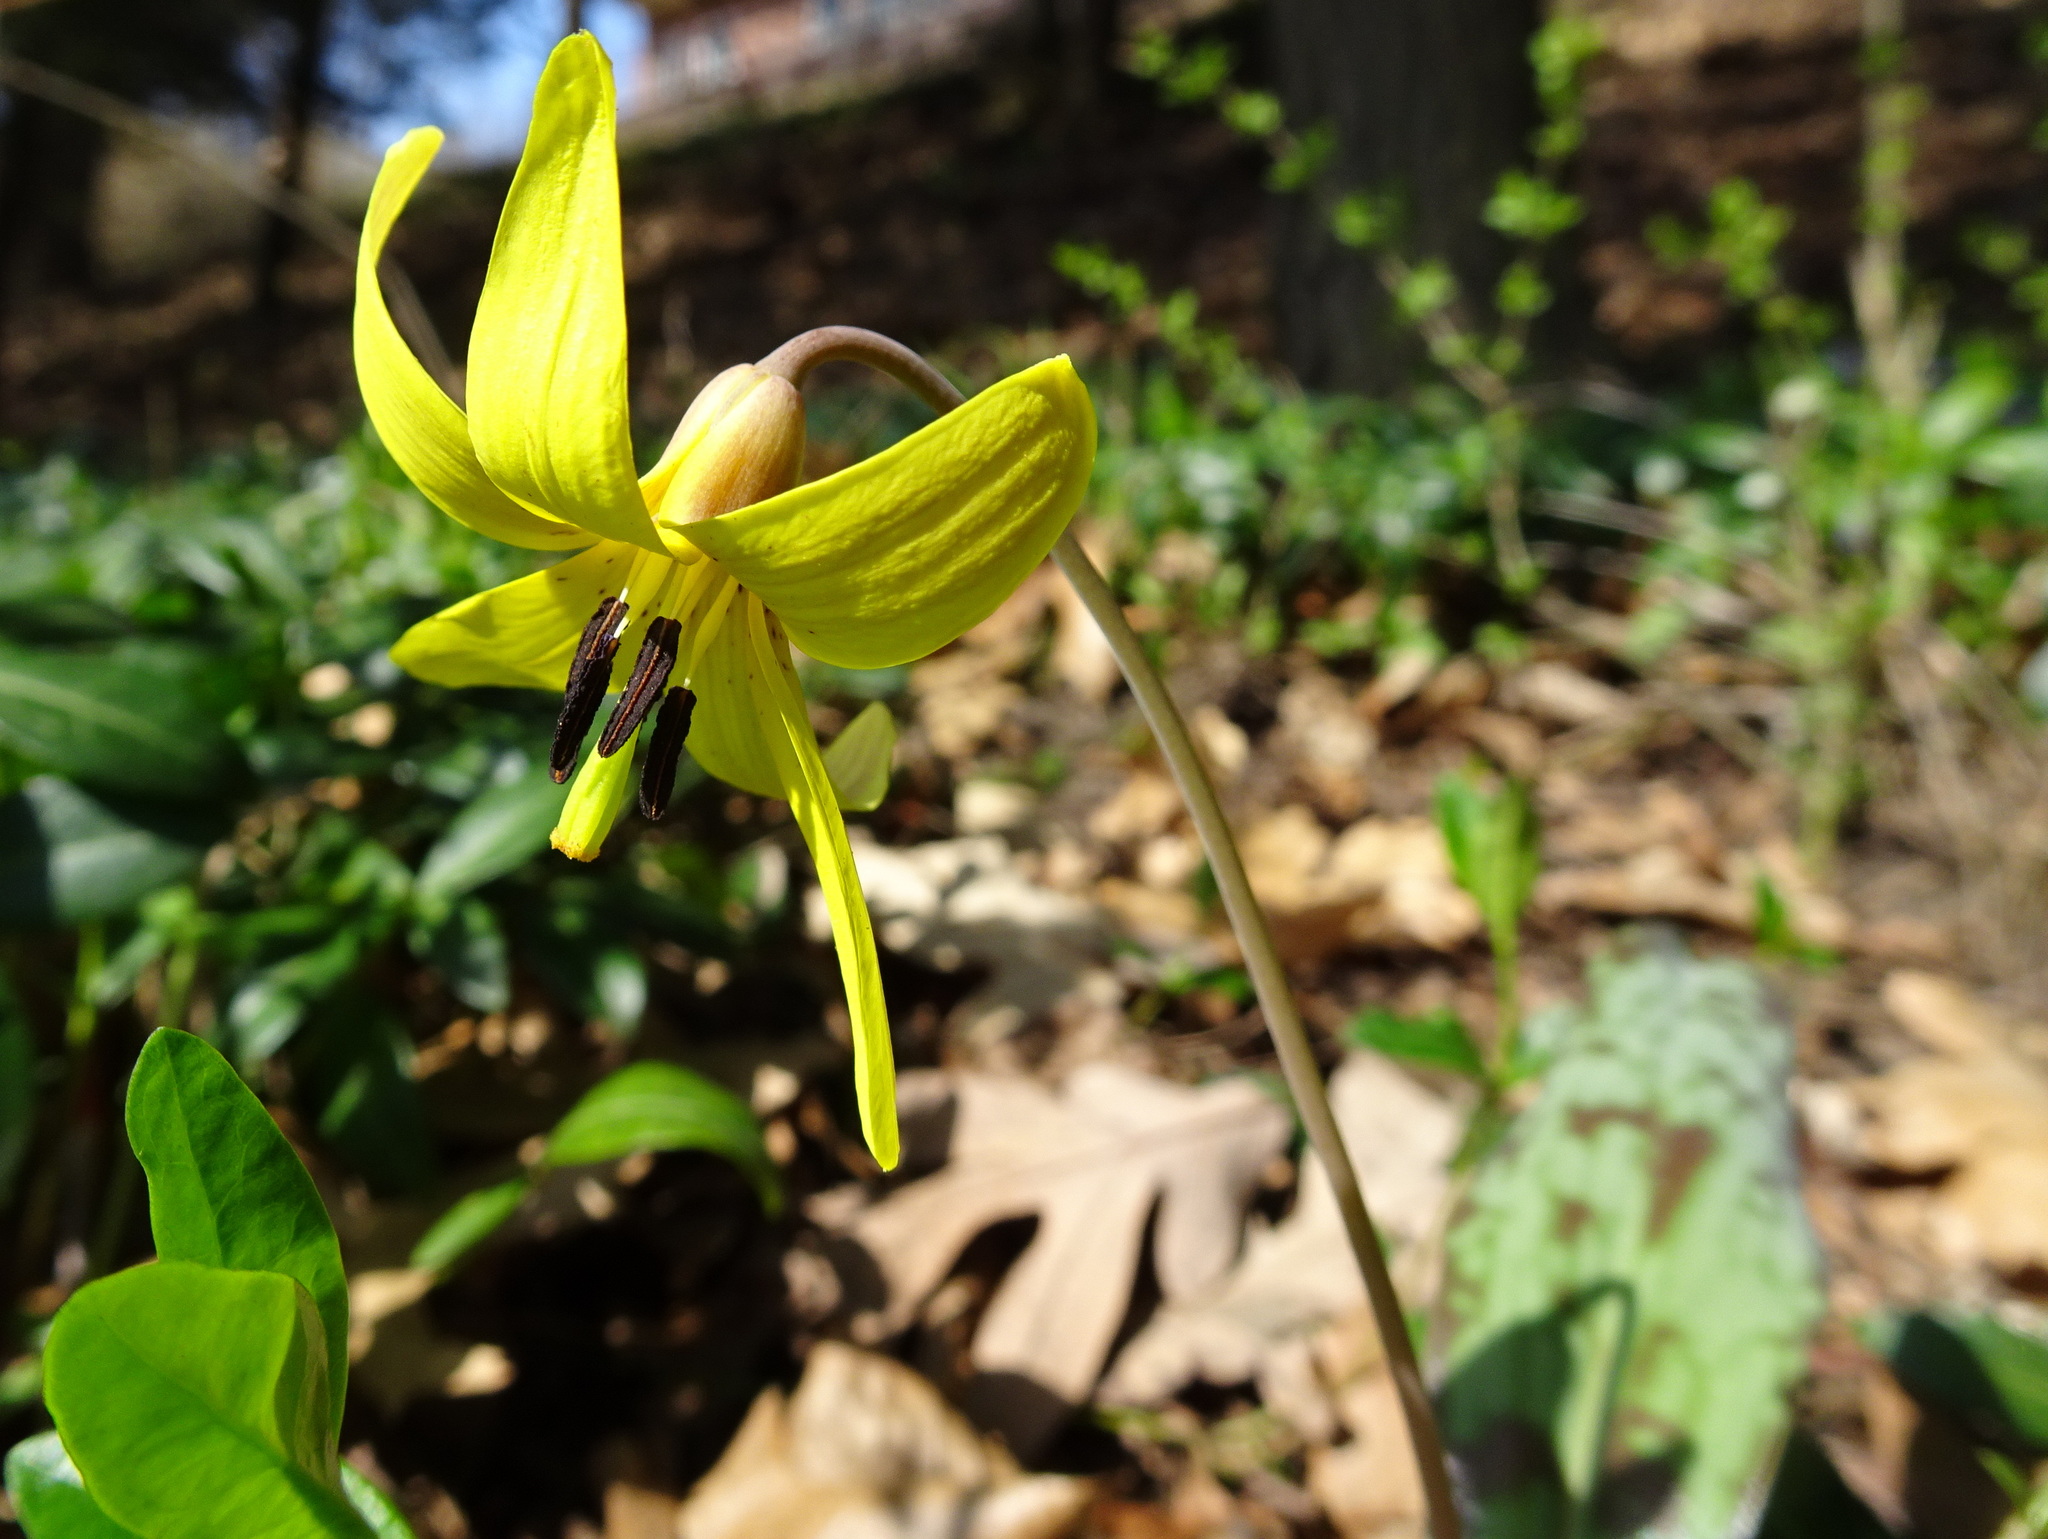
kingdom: Plantae
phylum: Tracheophyta
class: Liliopsida
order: Liliales
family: Liliaceae
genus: Erythronium
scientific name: Erythronium americanum
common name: Yellow adder's-tongue
